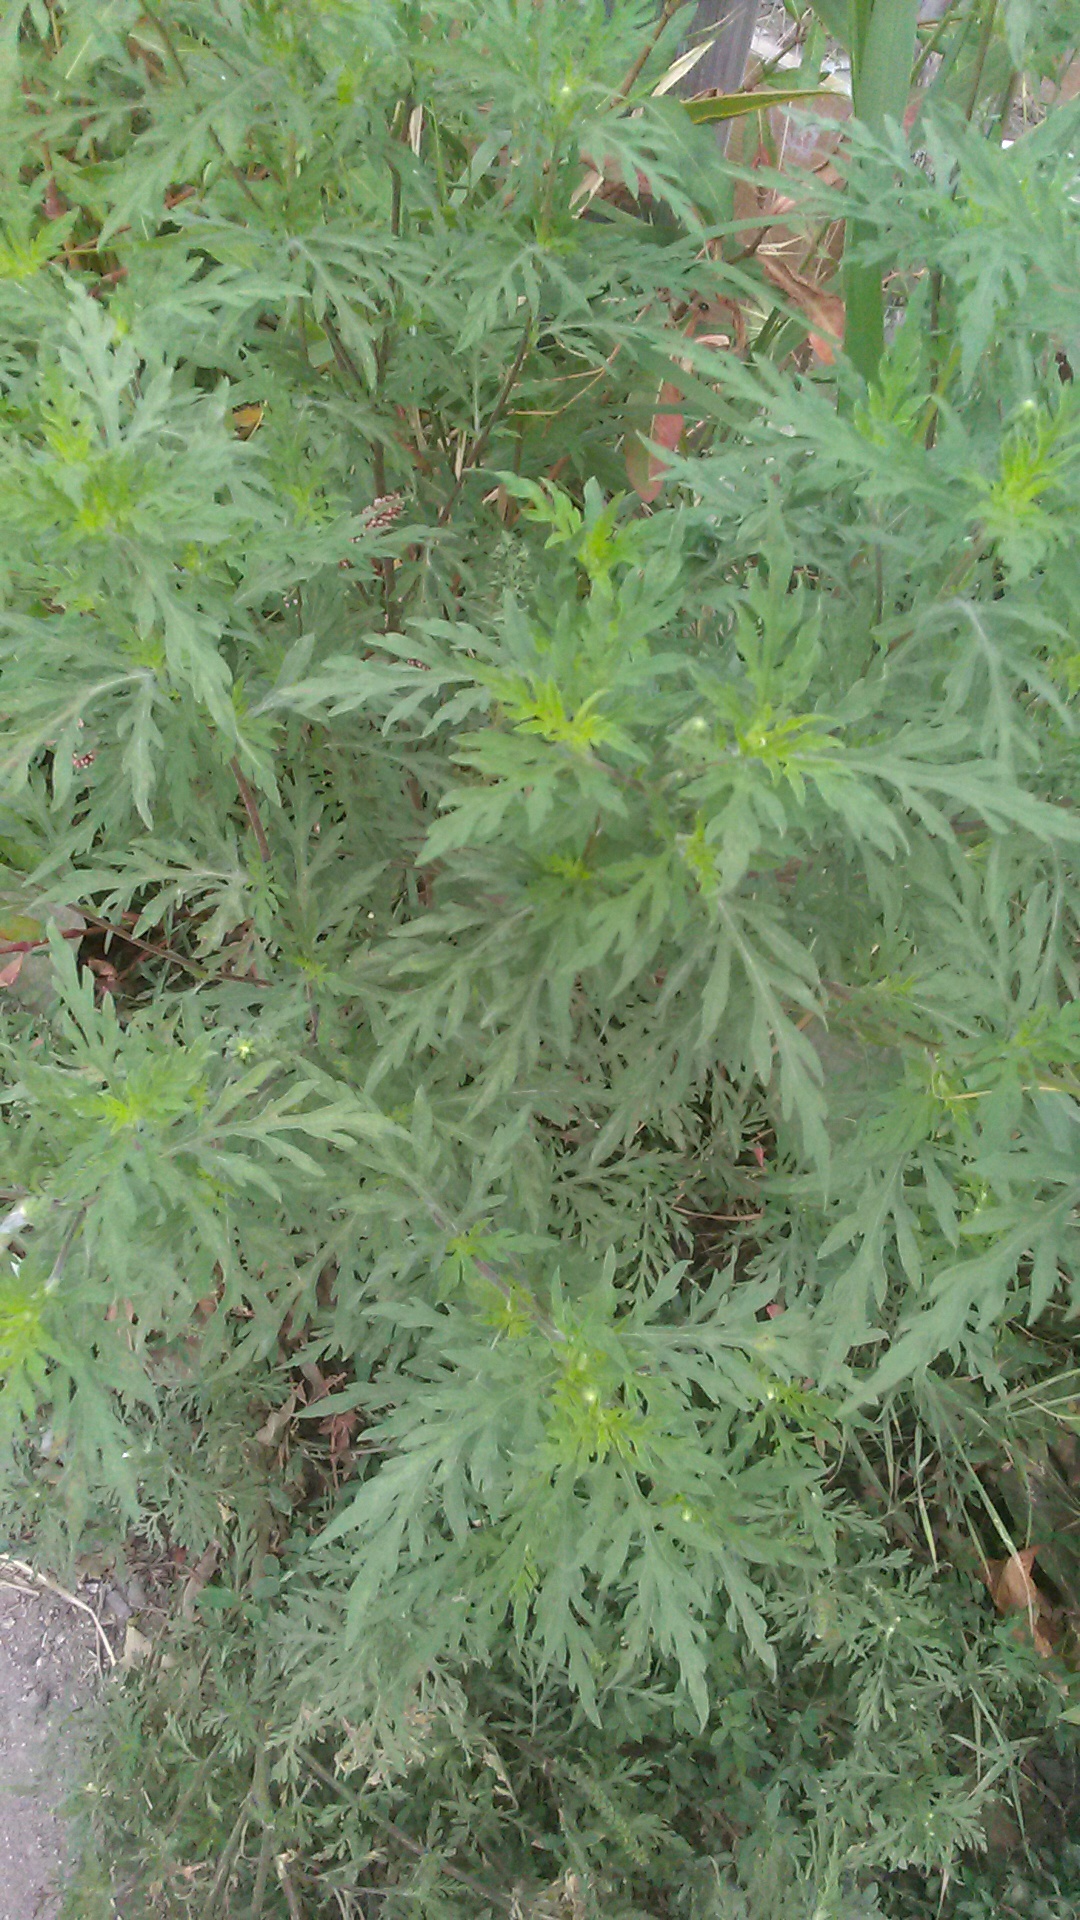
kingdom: Plantae
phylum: Tracheophyta
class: Magnoliopsida
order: Asterales
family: Asteraceae
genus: Ambrosia
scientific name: Ambrosia artemisiifolia
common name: Annual ragweed
